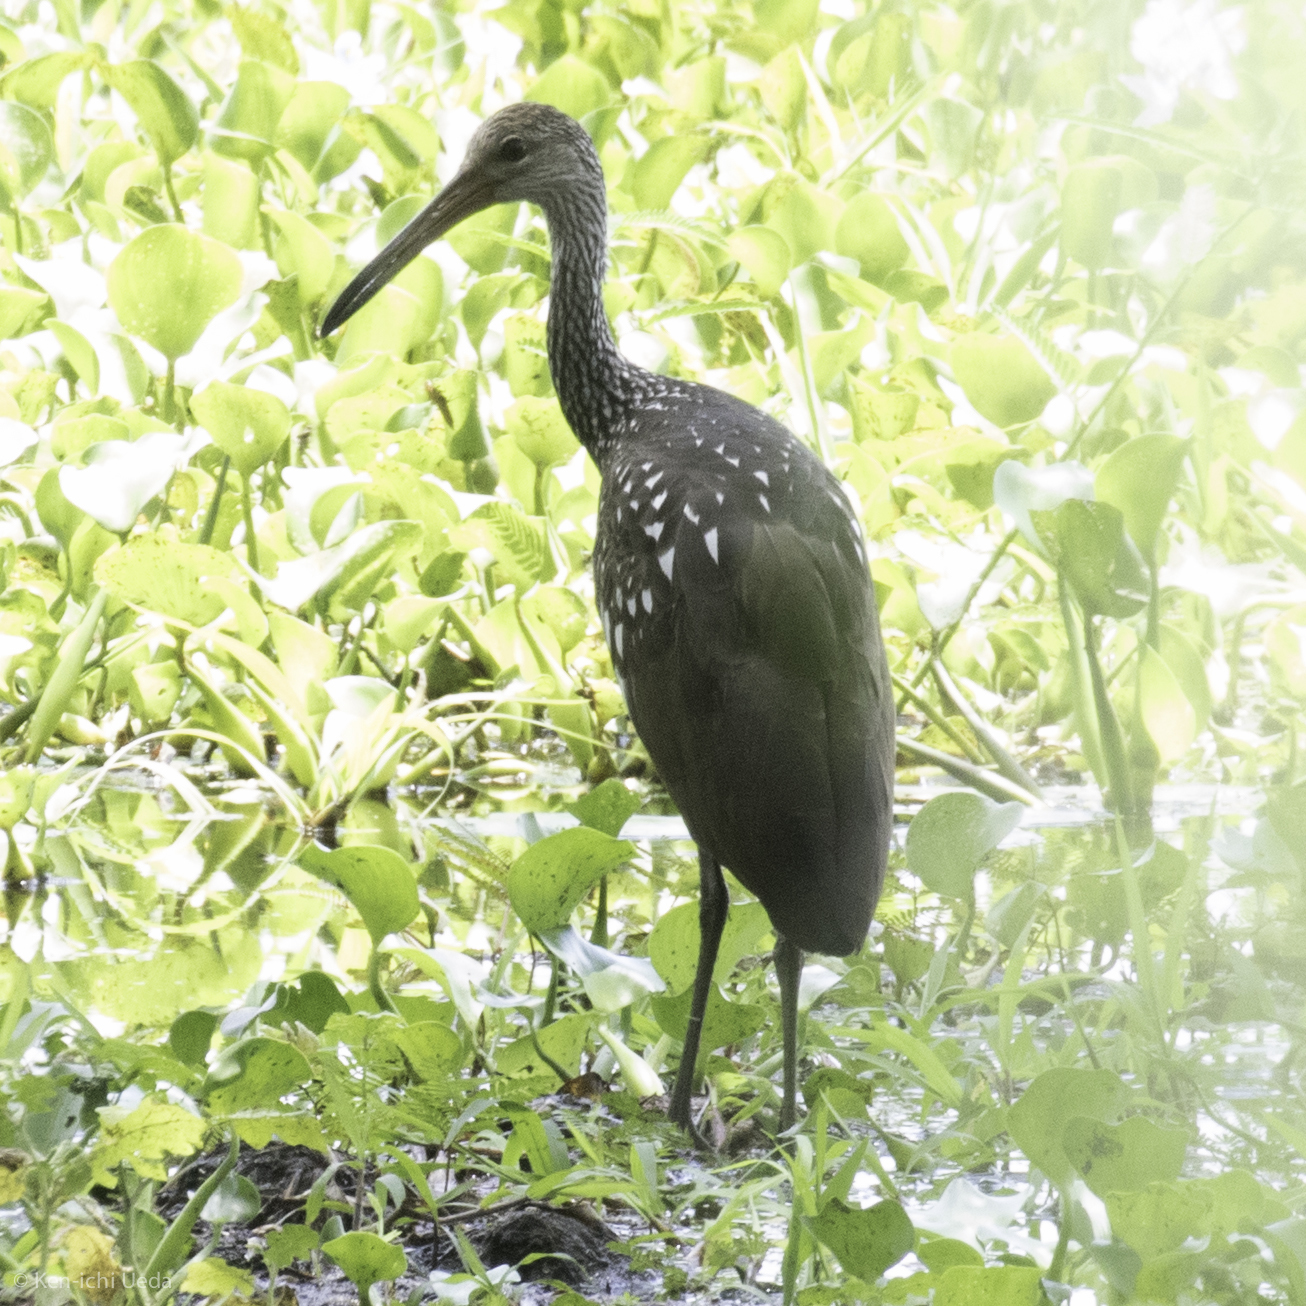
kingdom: Animalia
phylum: Chordata
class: Aves
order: Gruiformes
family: Aramidae
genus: Aramus
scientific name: Aramus guarauna
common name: Limpkin
